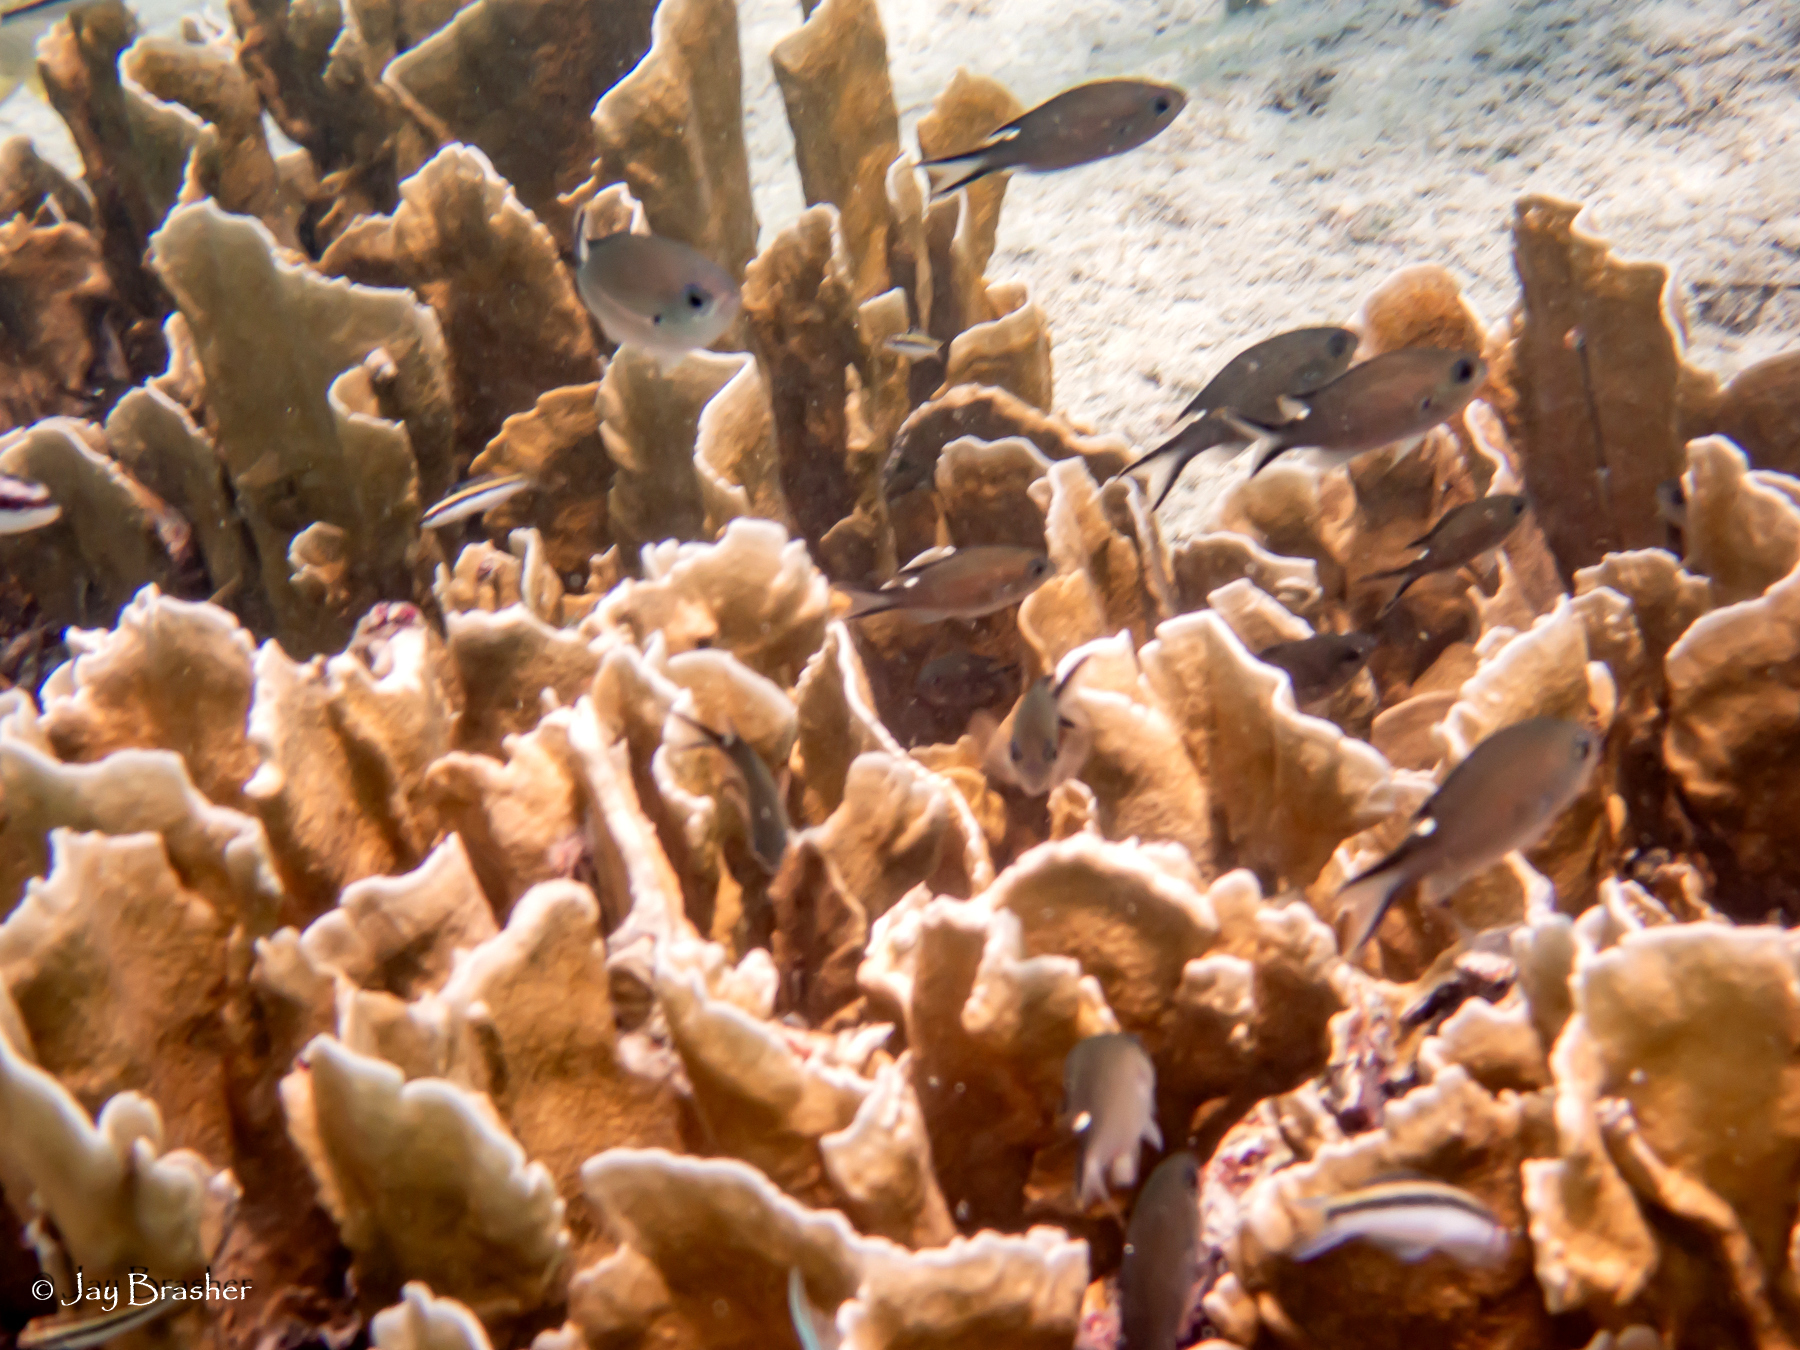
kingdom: Animalia
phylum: Chordata
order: Perciformes
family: Pomacentridae
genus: Chromis
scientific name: Chromis multilineata
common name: Brown chromis
